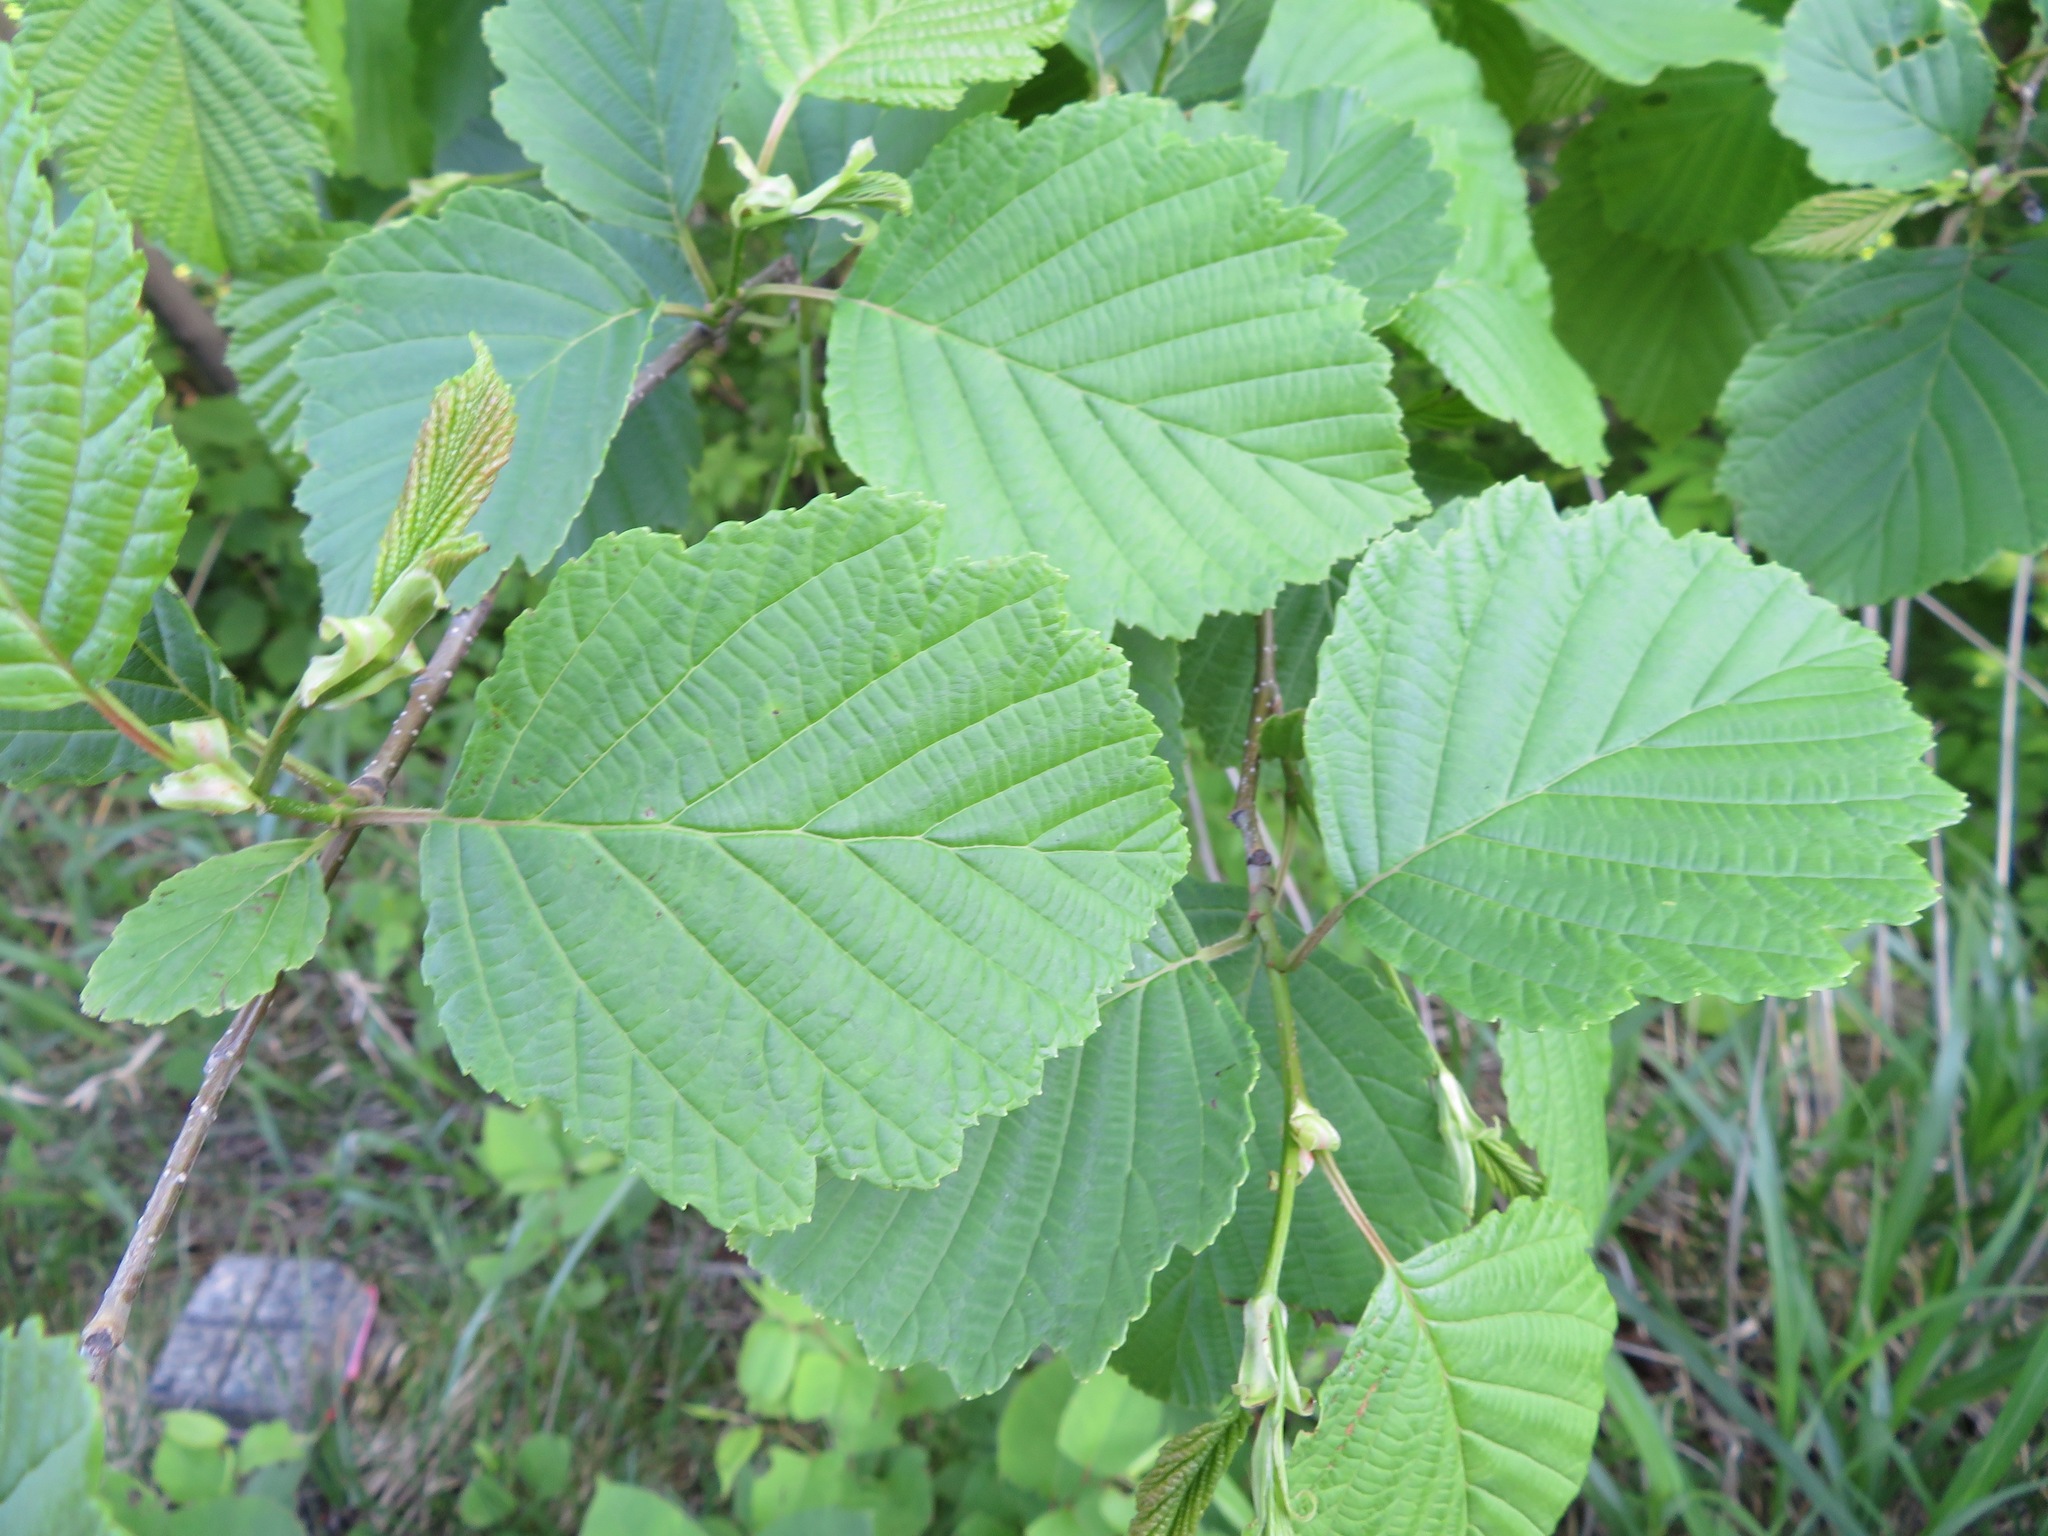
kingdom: Plantae
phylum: Tracheophyta
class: Magnoliopsida
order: Fagales
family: Betulaceae
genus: Alnus
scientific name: Alnus hirsuta
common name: Manchurian alder
